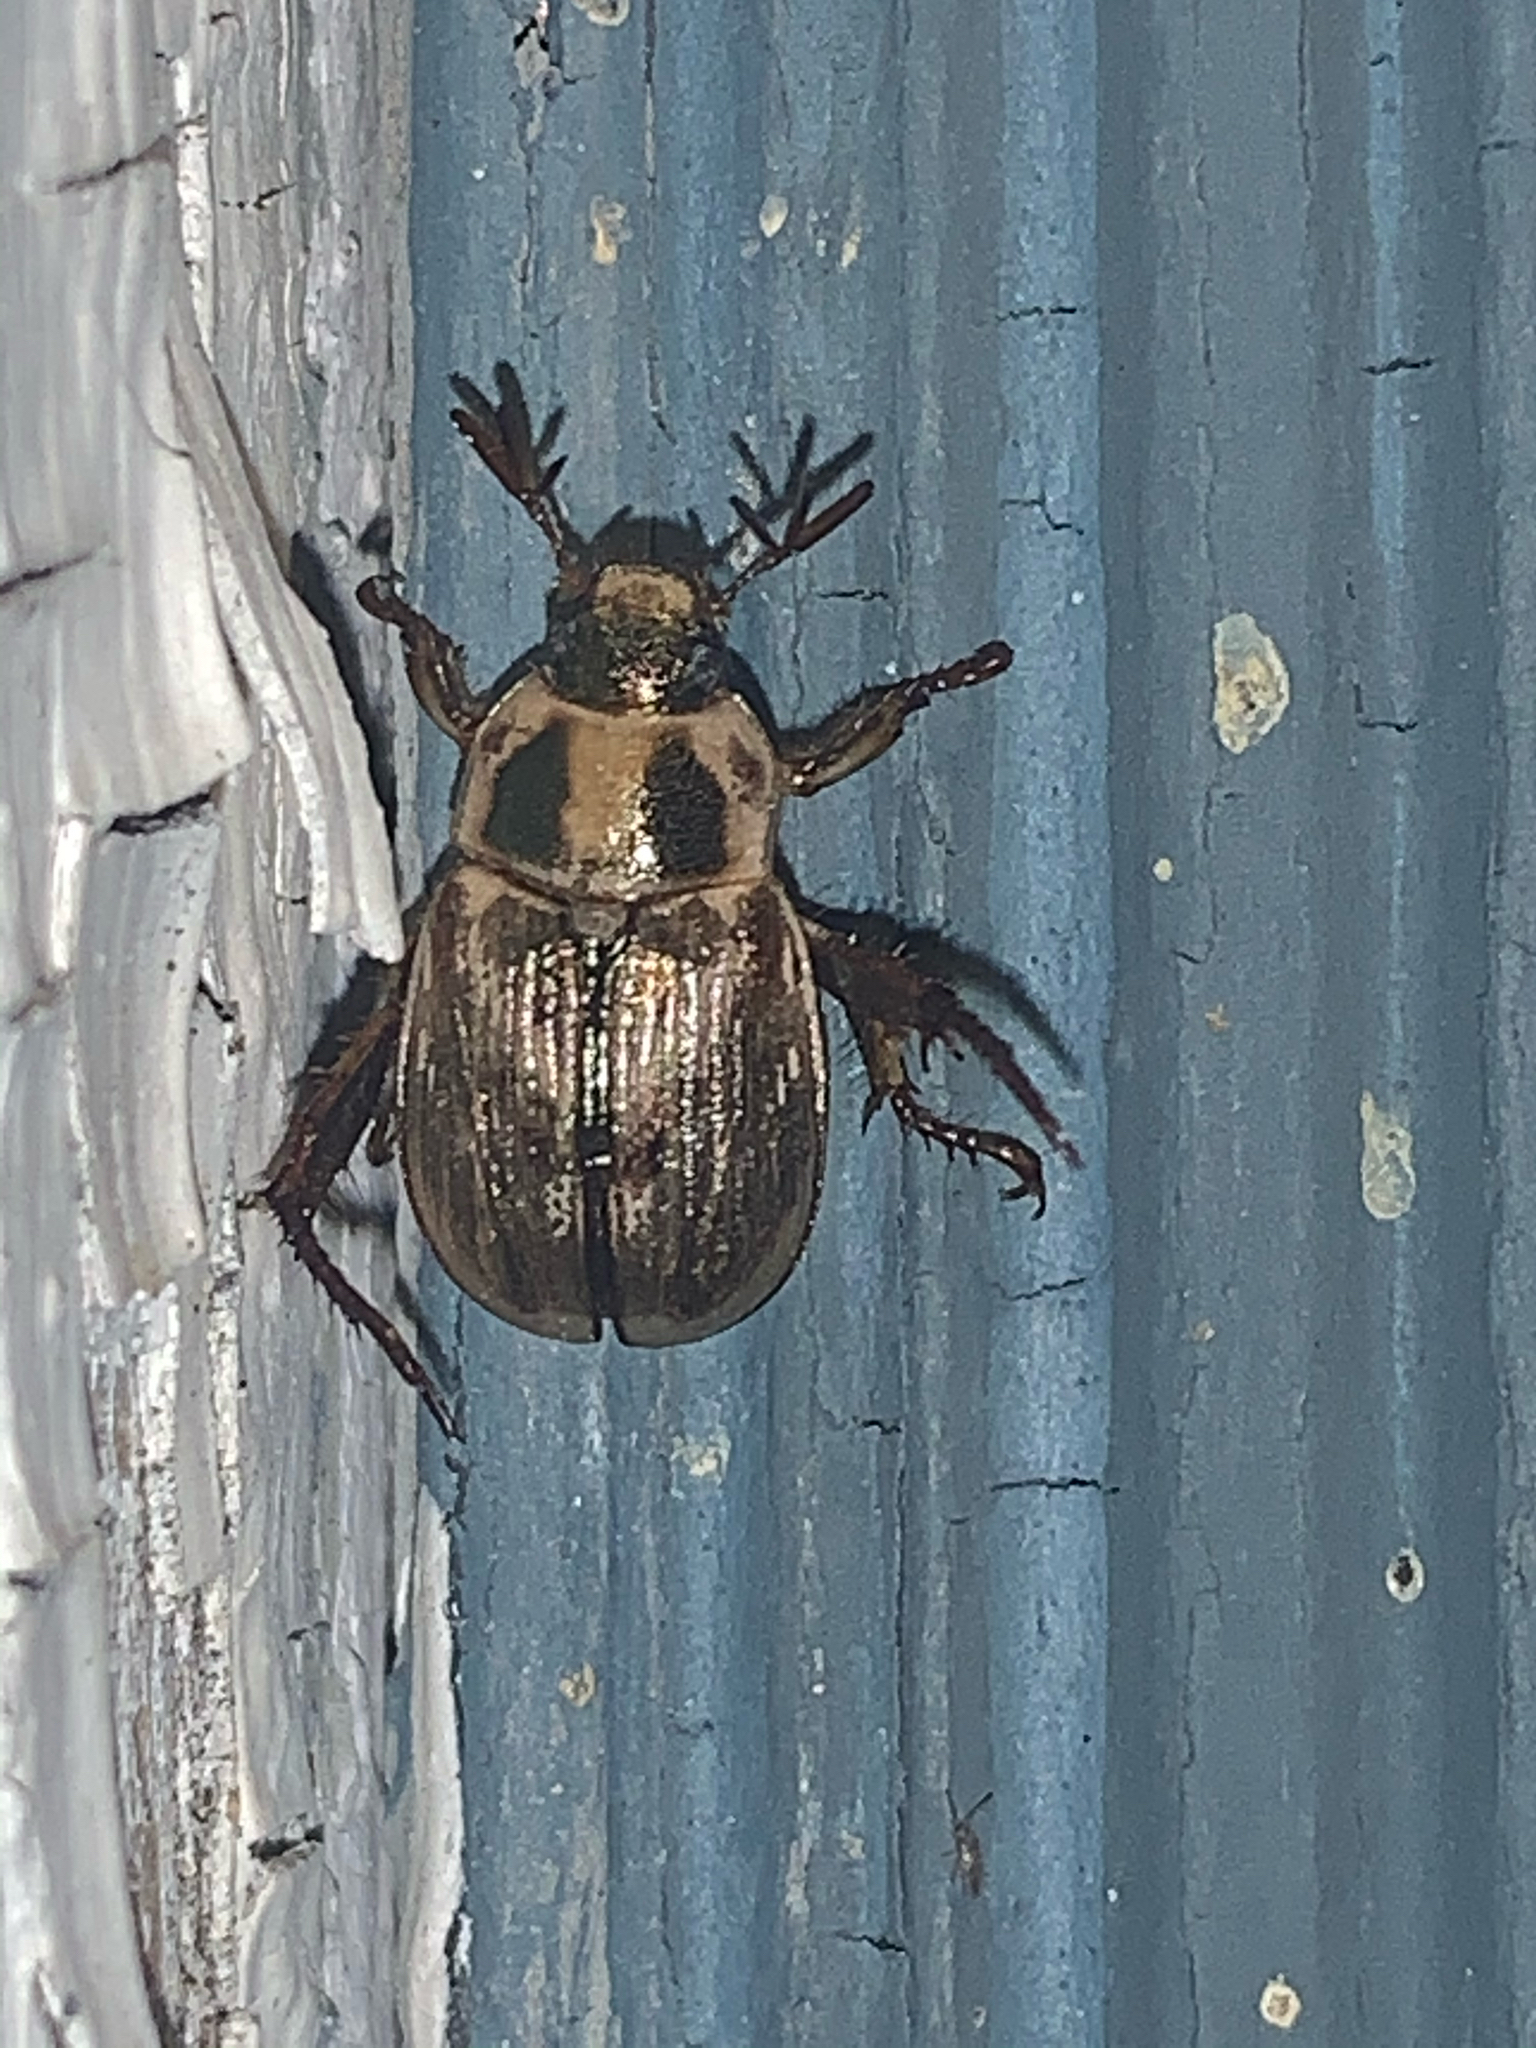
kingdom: Animalia
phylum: Arthropoda
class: Insecta
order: Coleoptera
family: Scarabaeidae
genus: Exomala
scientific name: Exomala orientalis
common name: Oriental beetle
